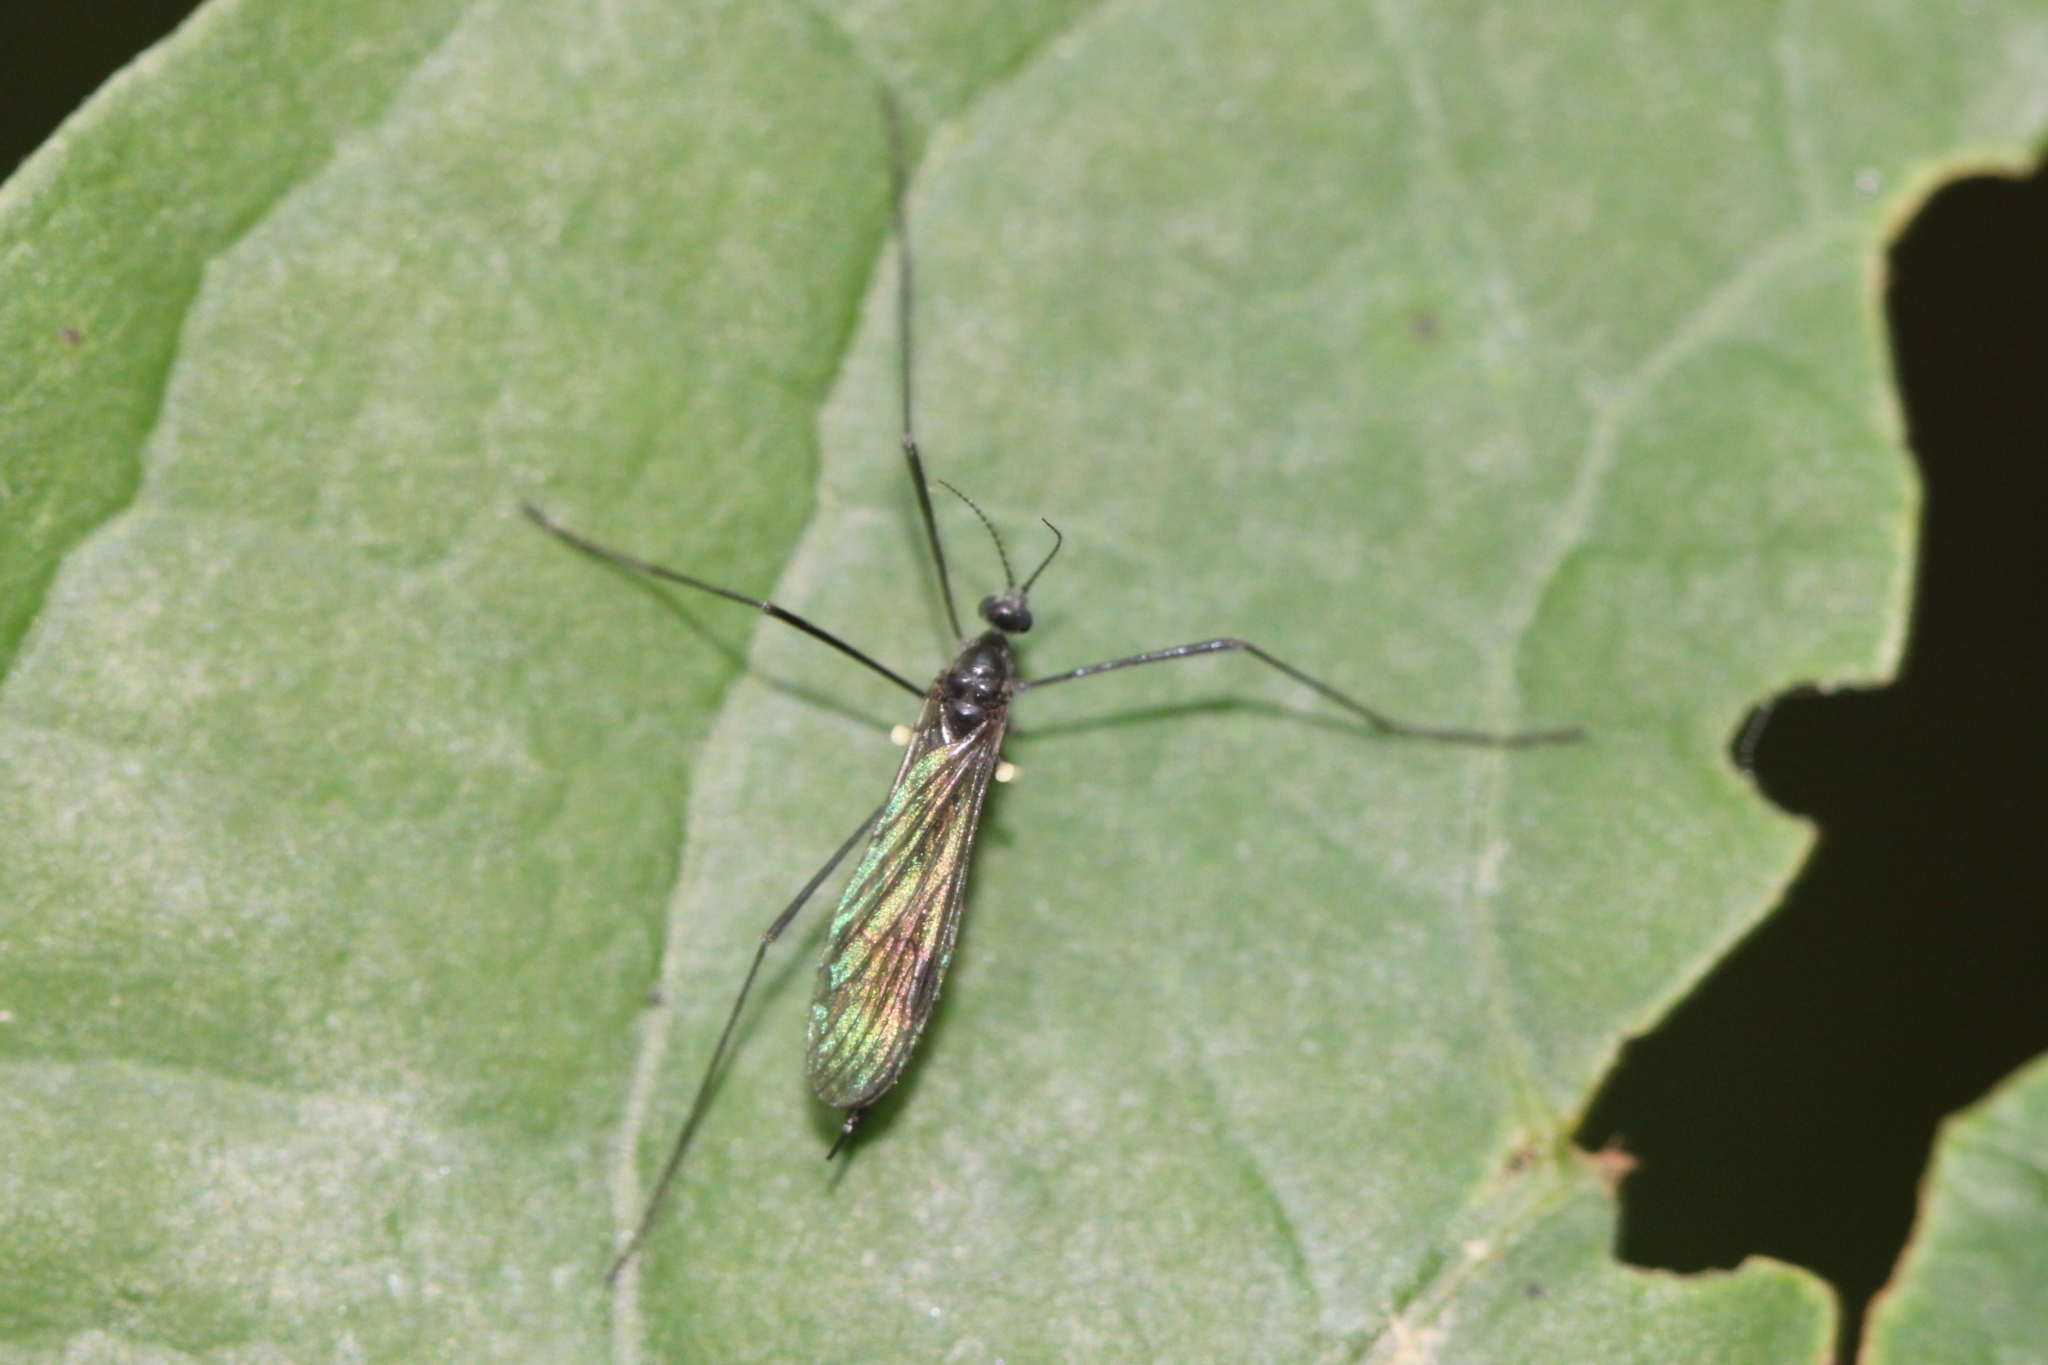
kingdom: Animalia
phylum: Arthropoda
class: Insecta
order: Diptera
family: Limoniidae
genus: Gnophomyia
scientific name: Gnophomyia tristissima
